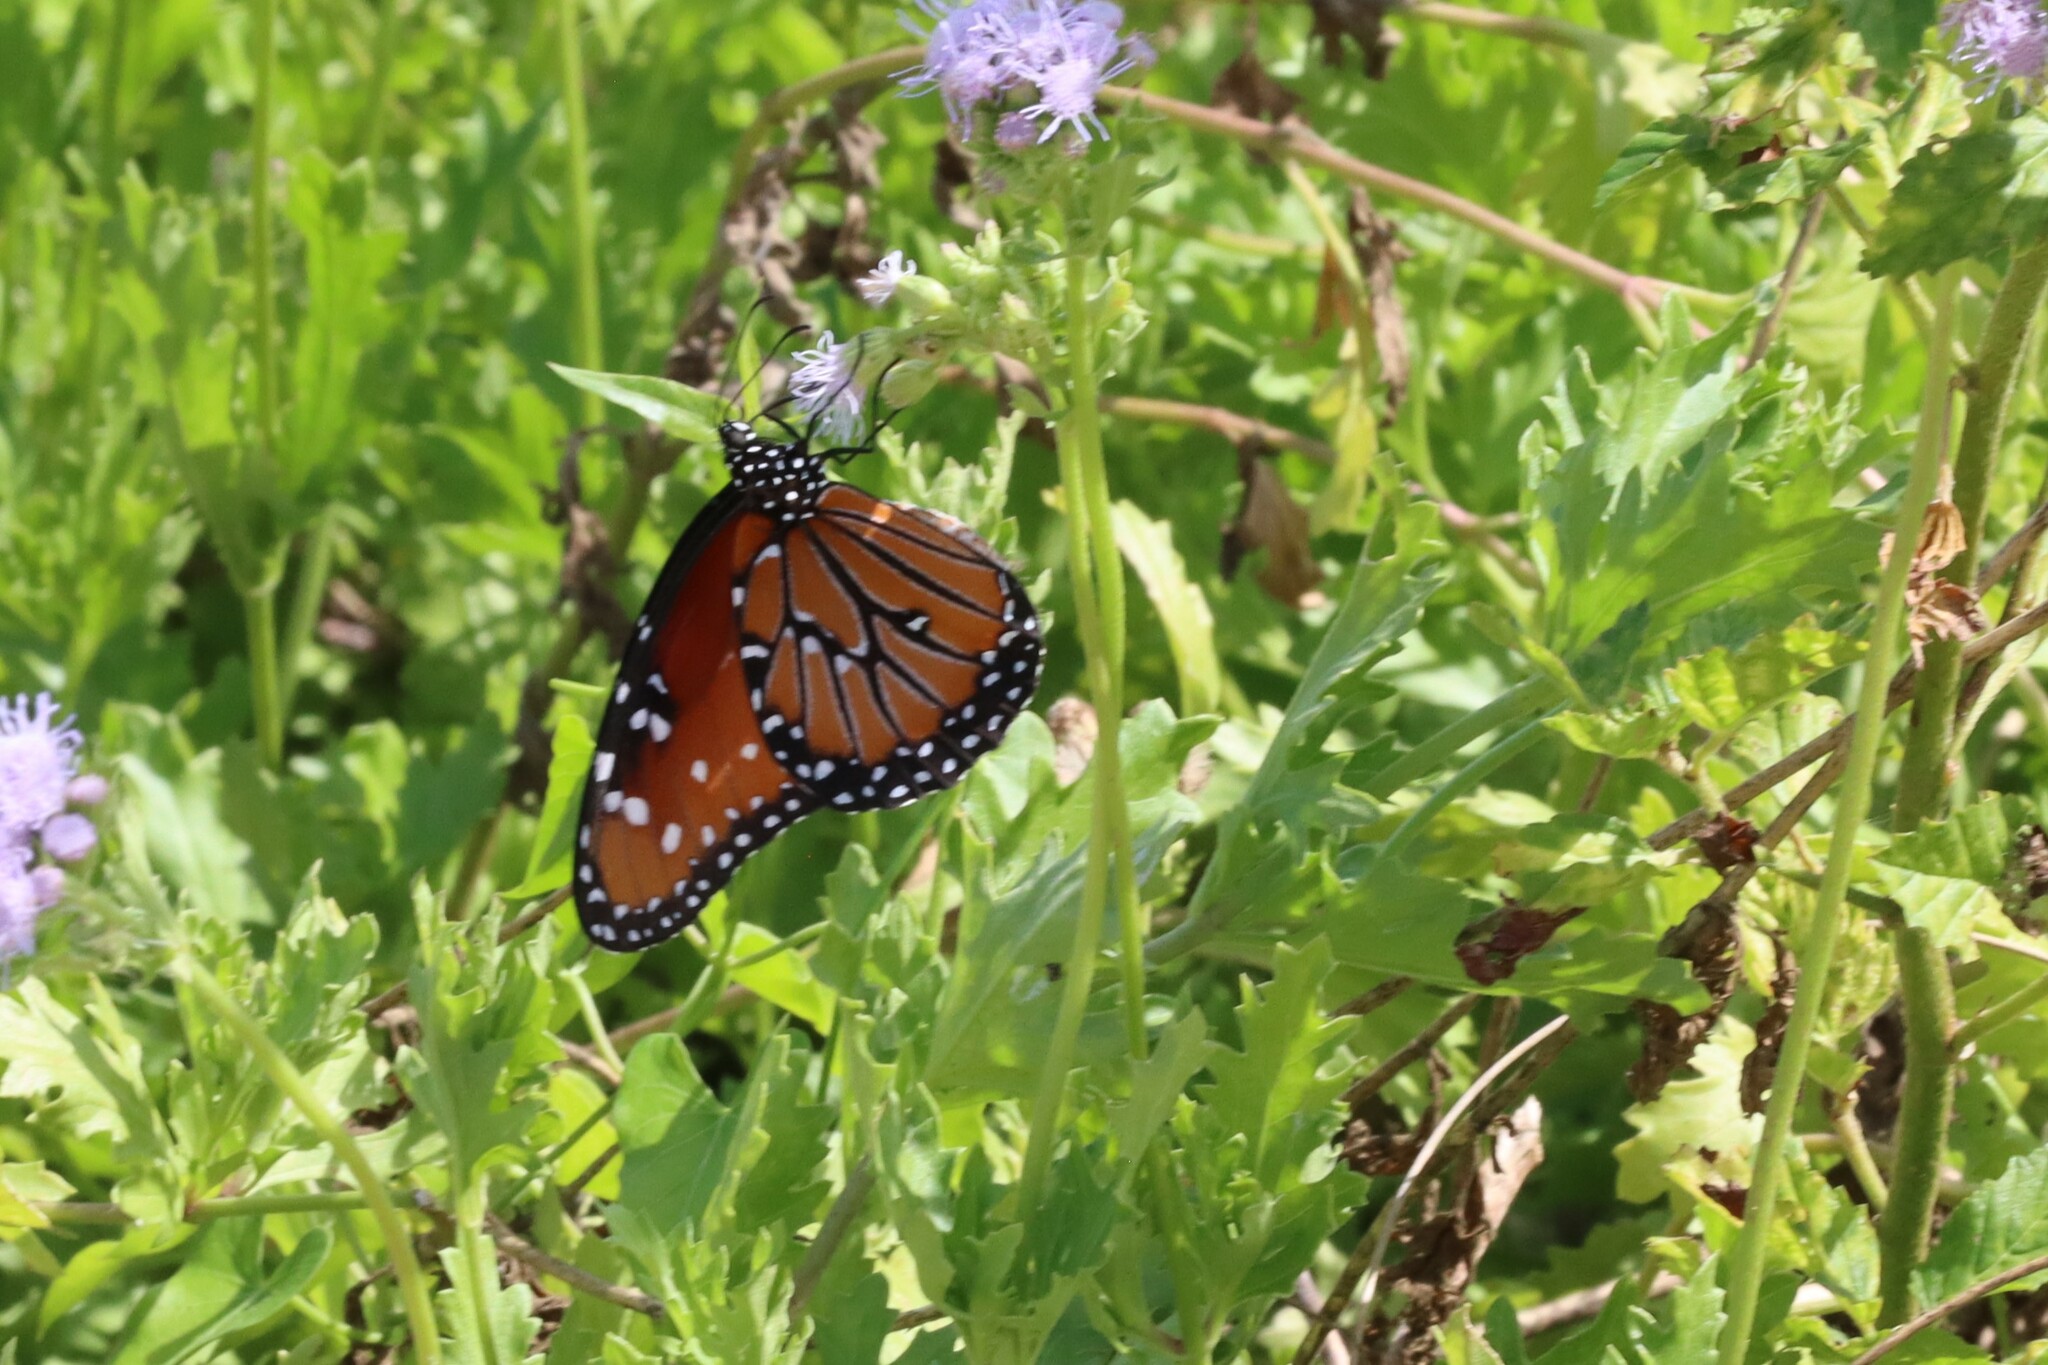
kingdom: Animalia
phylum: Arthropoda
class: Insecta
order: Lepidoptera
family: Nymphalidae
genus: Danaus
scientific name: Danaus gilippus
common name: Queen
